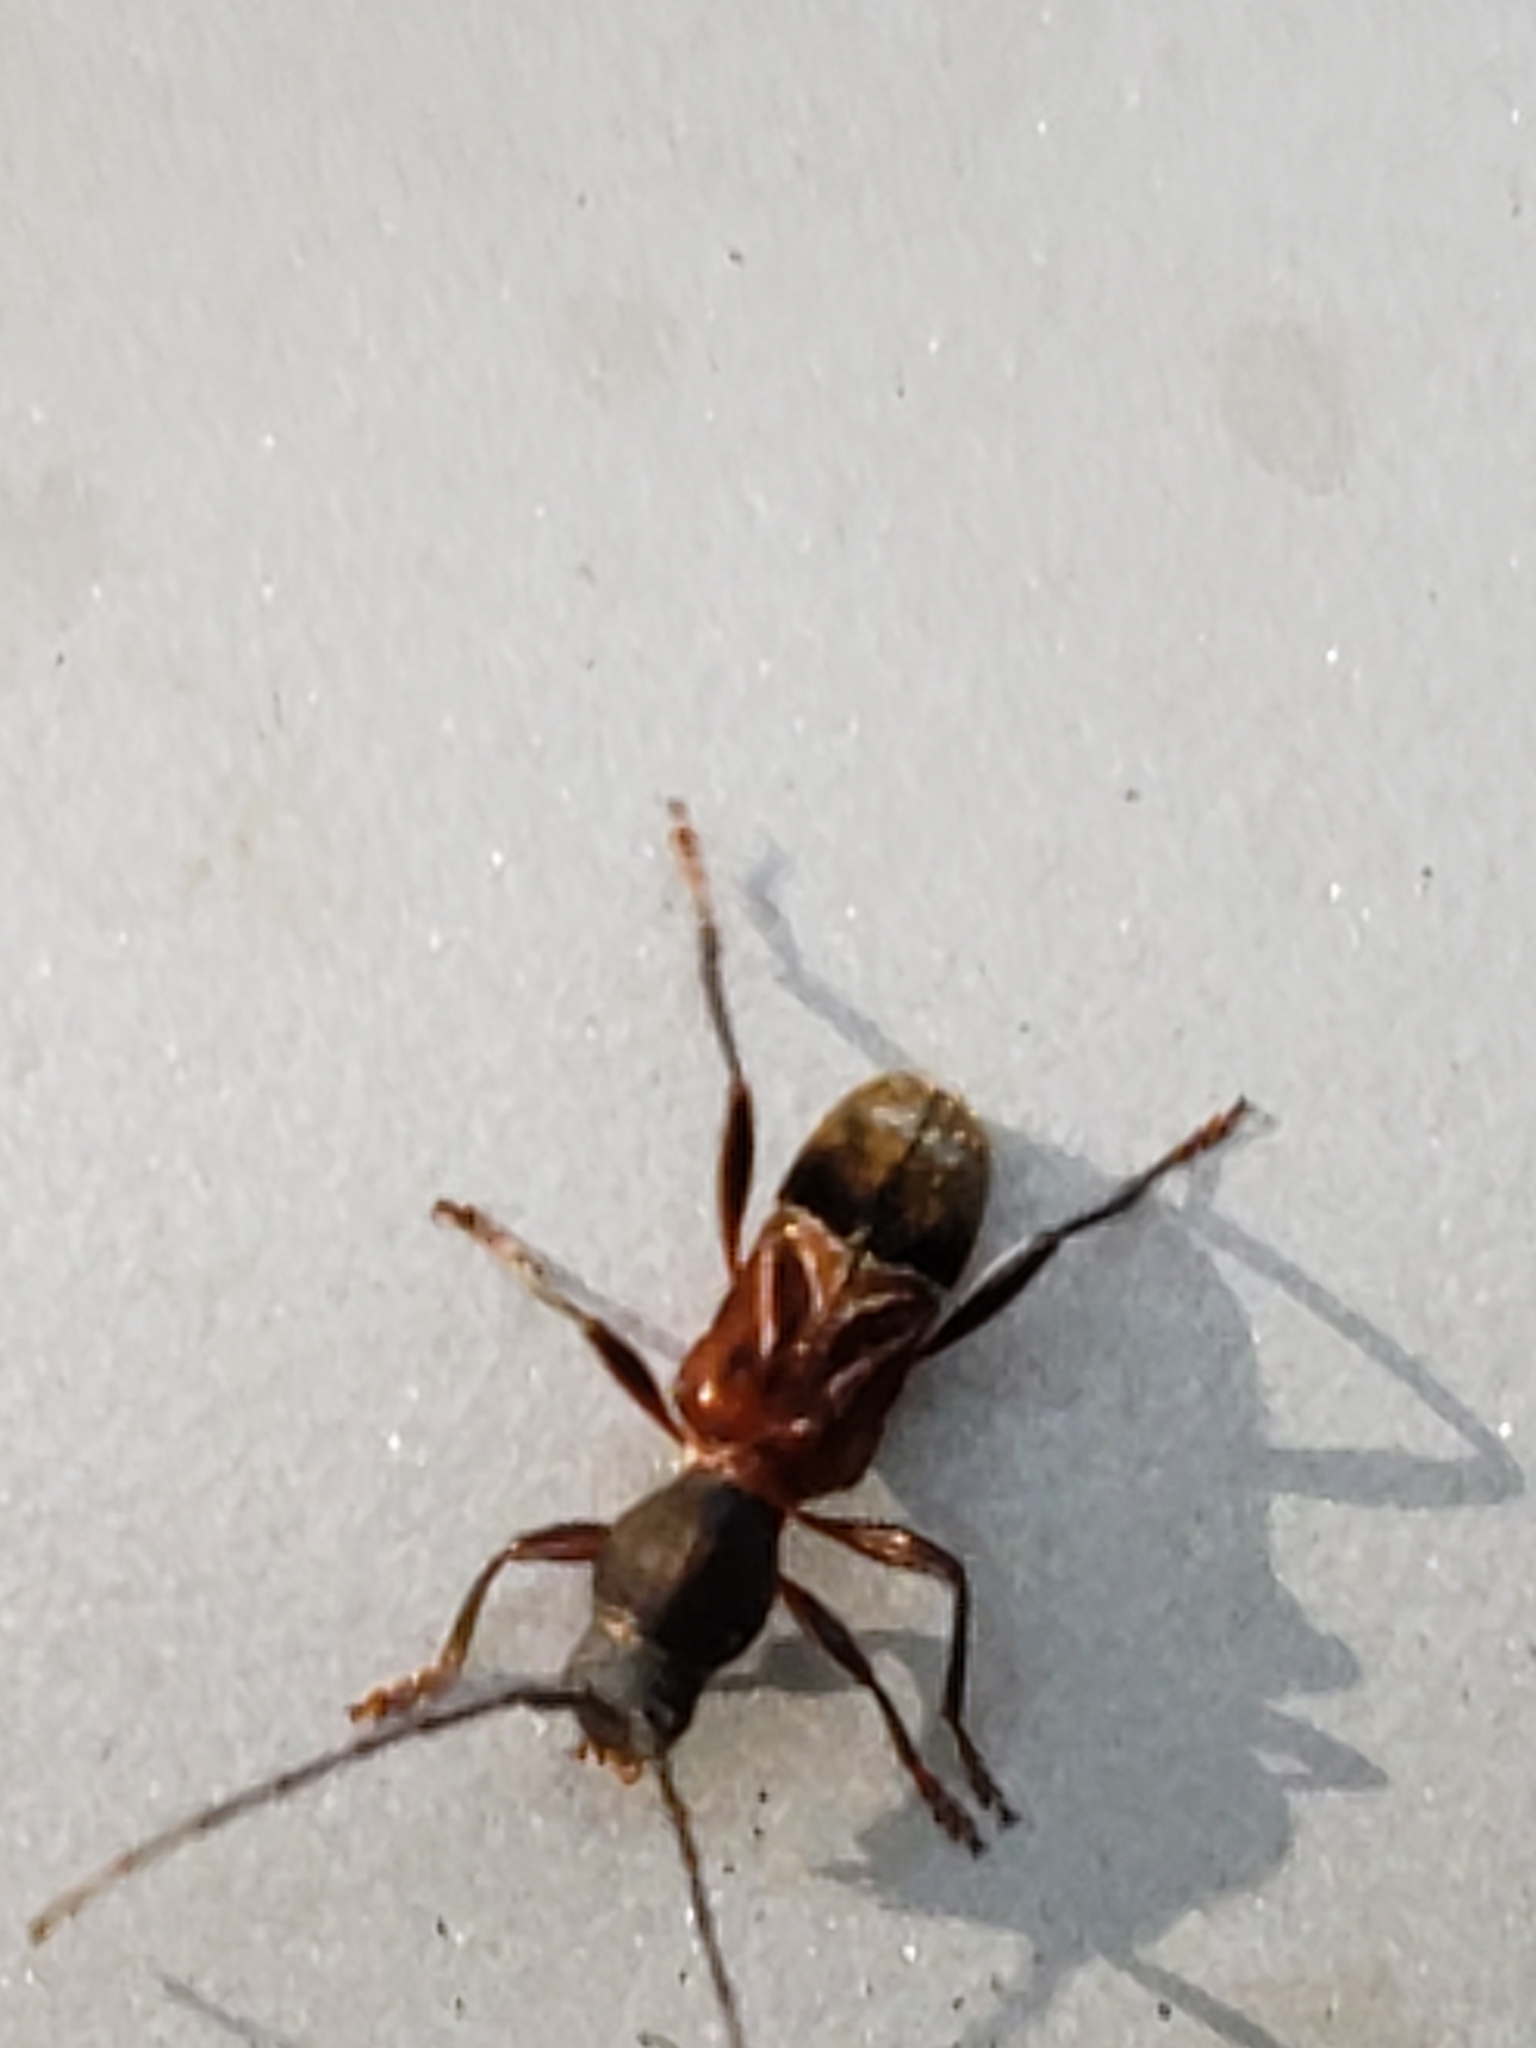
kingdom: Animalia
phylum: Arthropoda
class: Insecta
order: Coleoptera
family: Cerambycidae
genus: Cyrtophorus
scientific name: Cyrtophorus verrucosus
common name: Ant-like longhorn beetle
